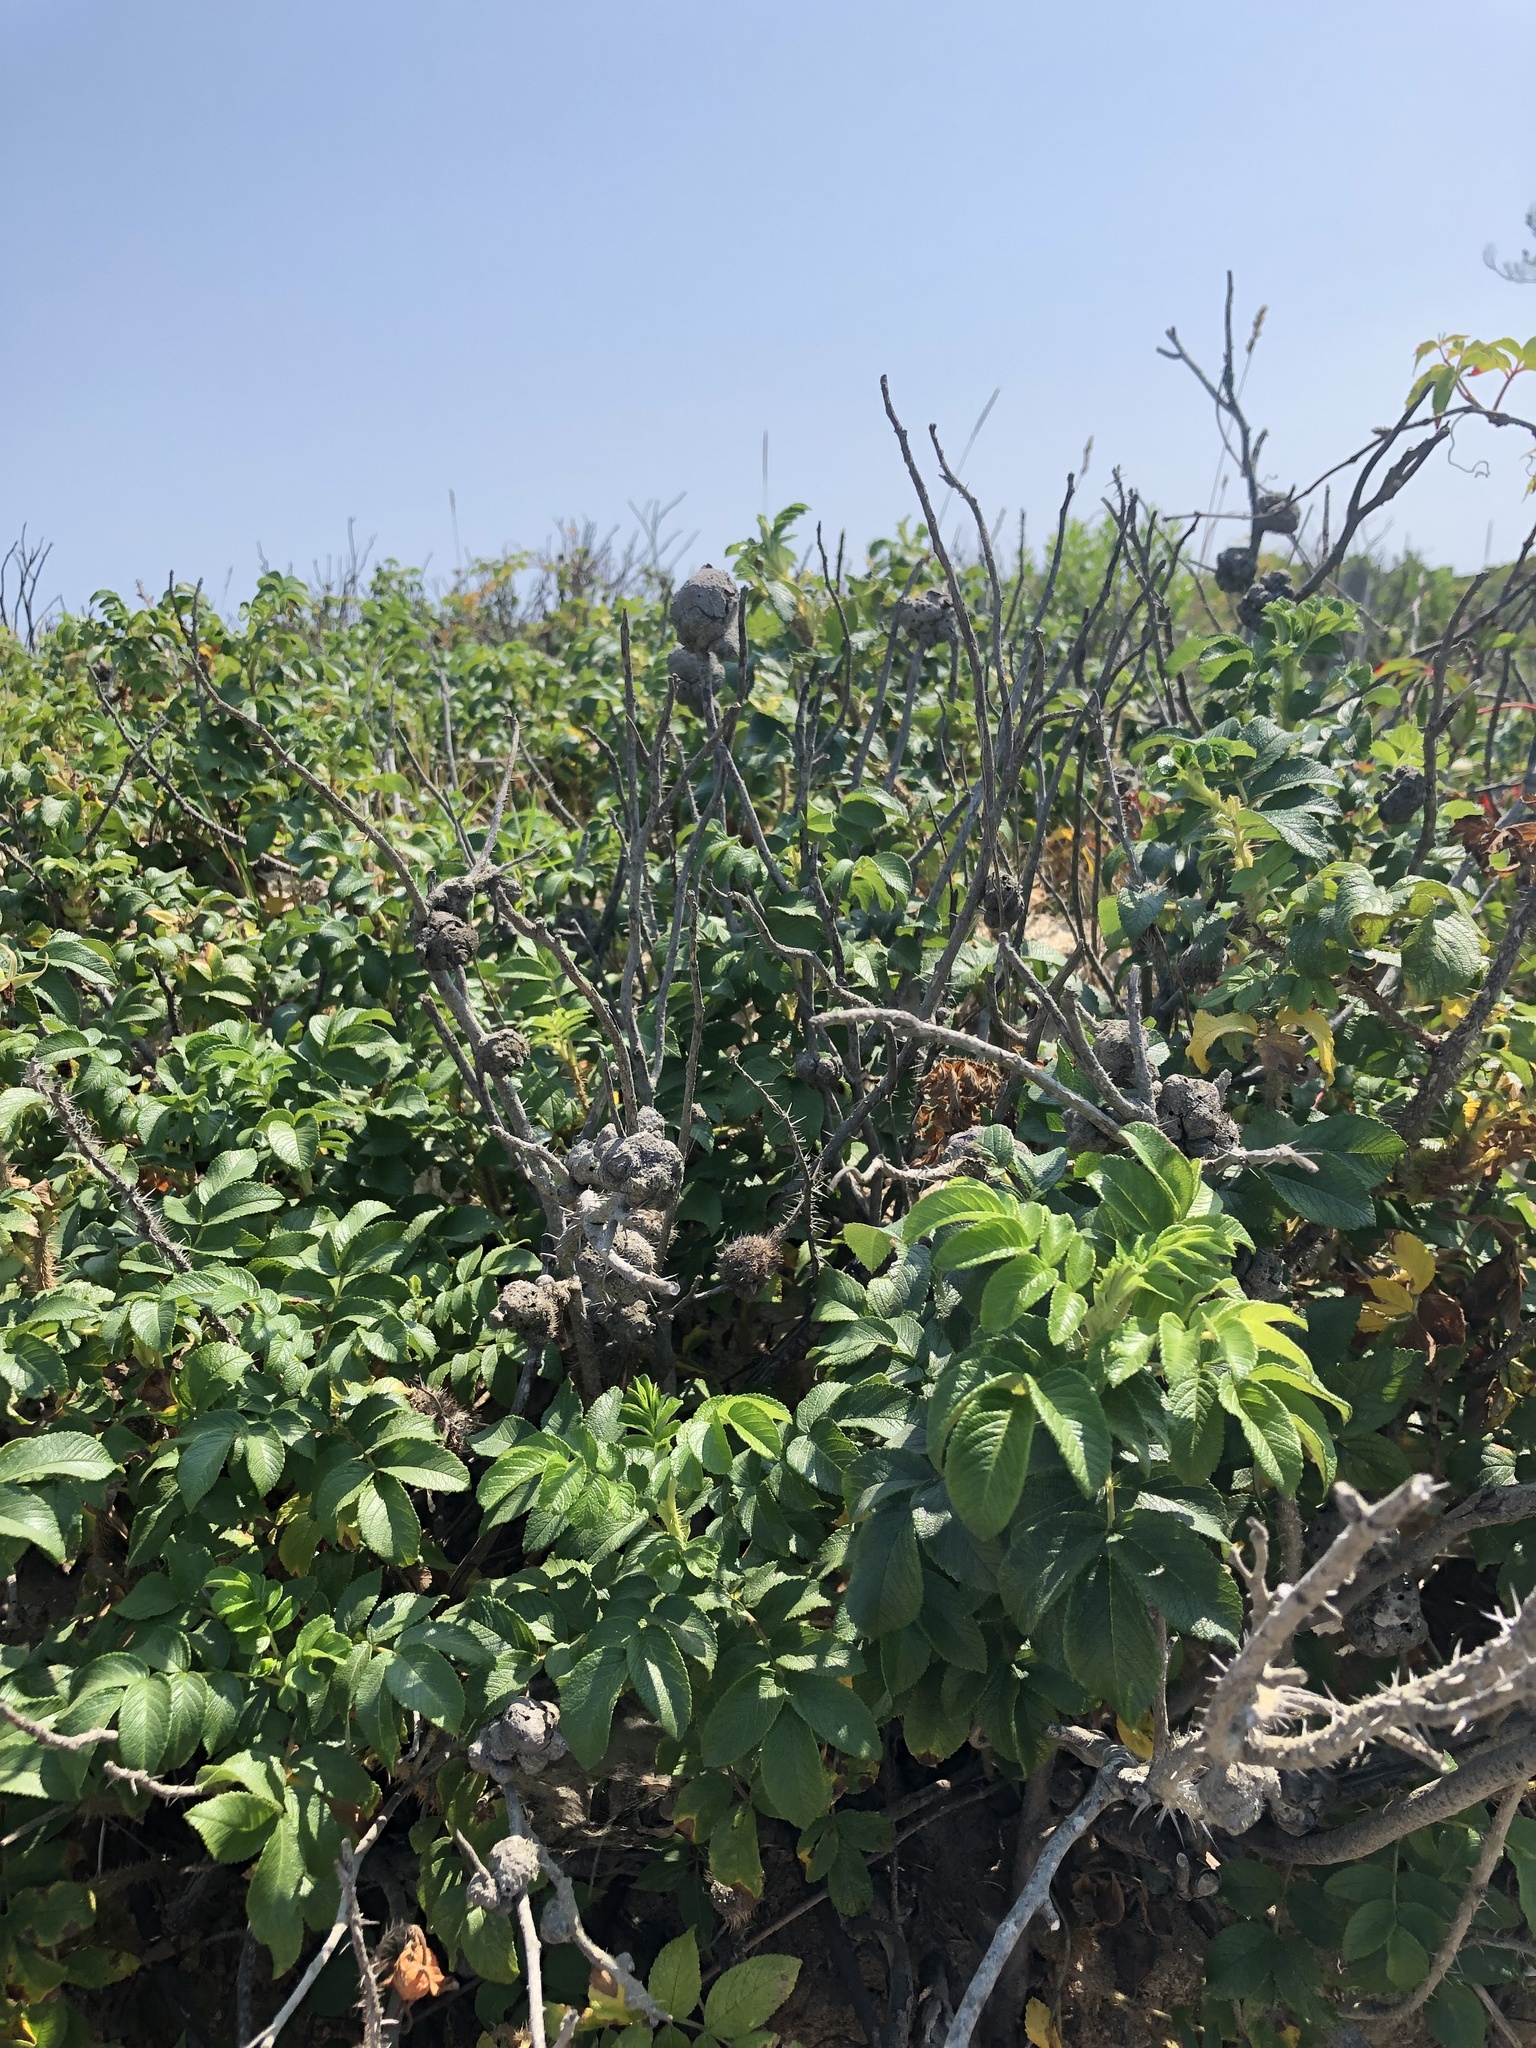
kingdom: Animalia
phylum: Arthropoda
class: Insecta
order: Hymenoptera
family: Cynipidae
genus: Diplolepis
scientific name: Diplolepis spinosa
